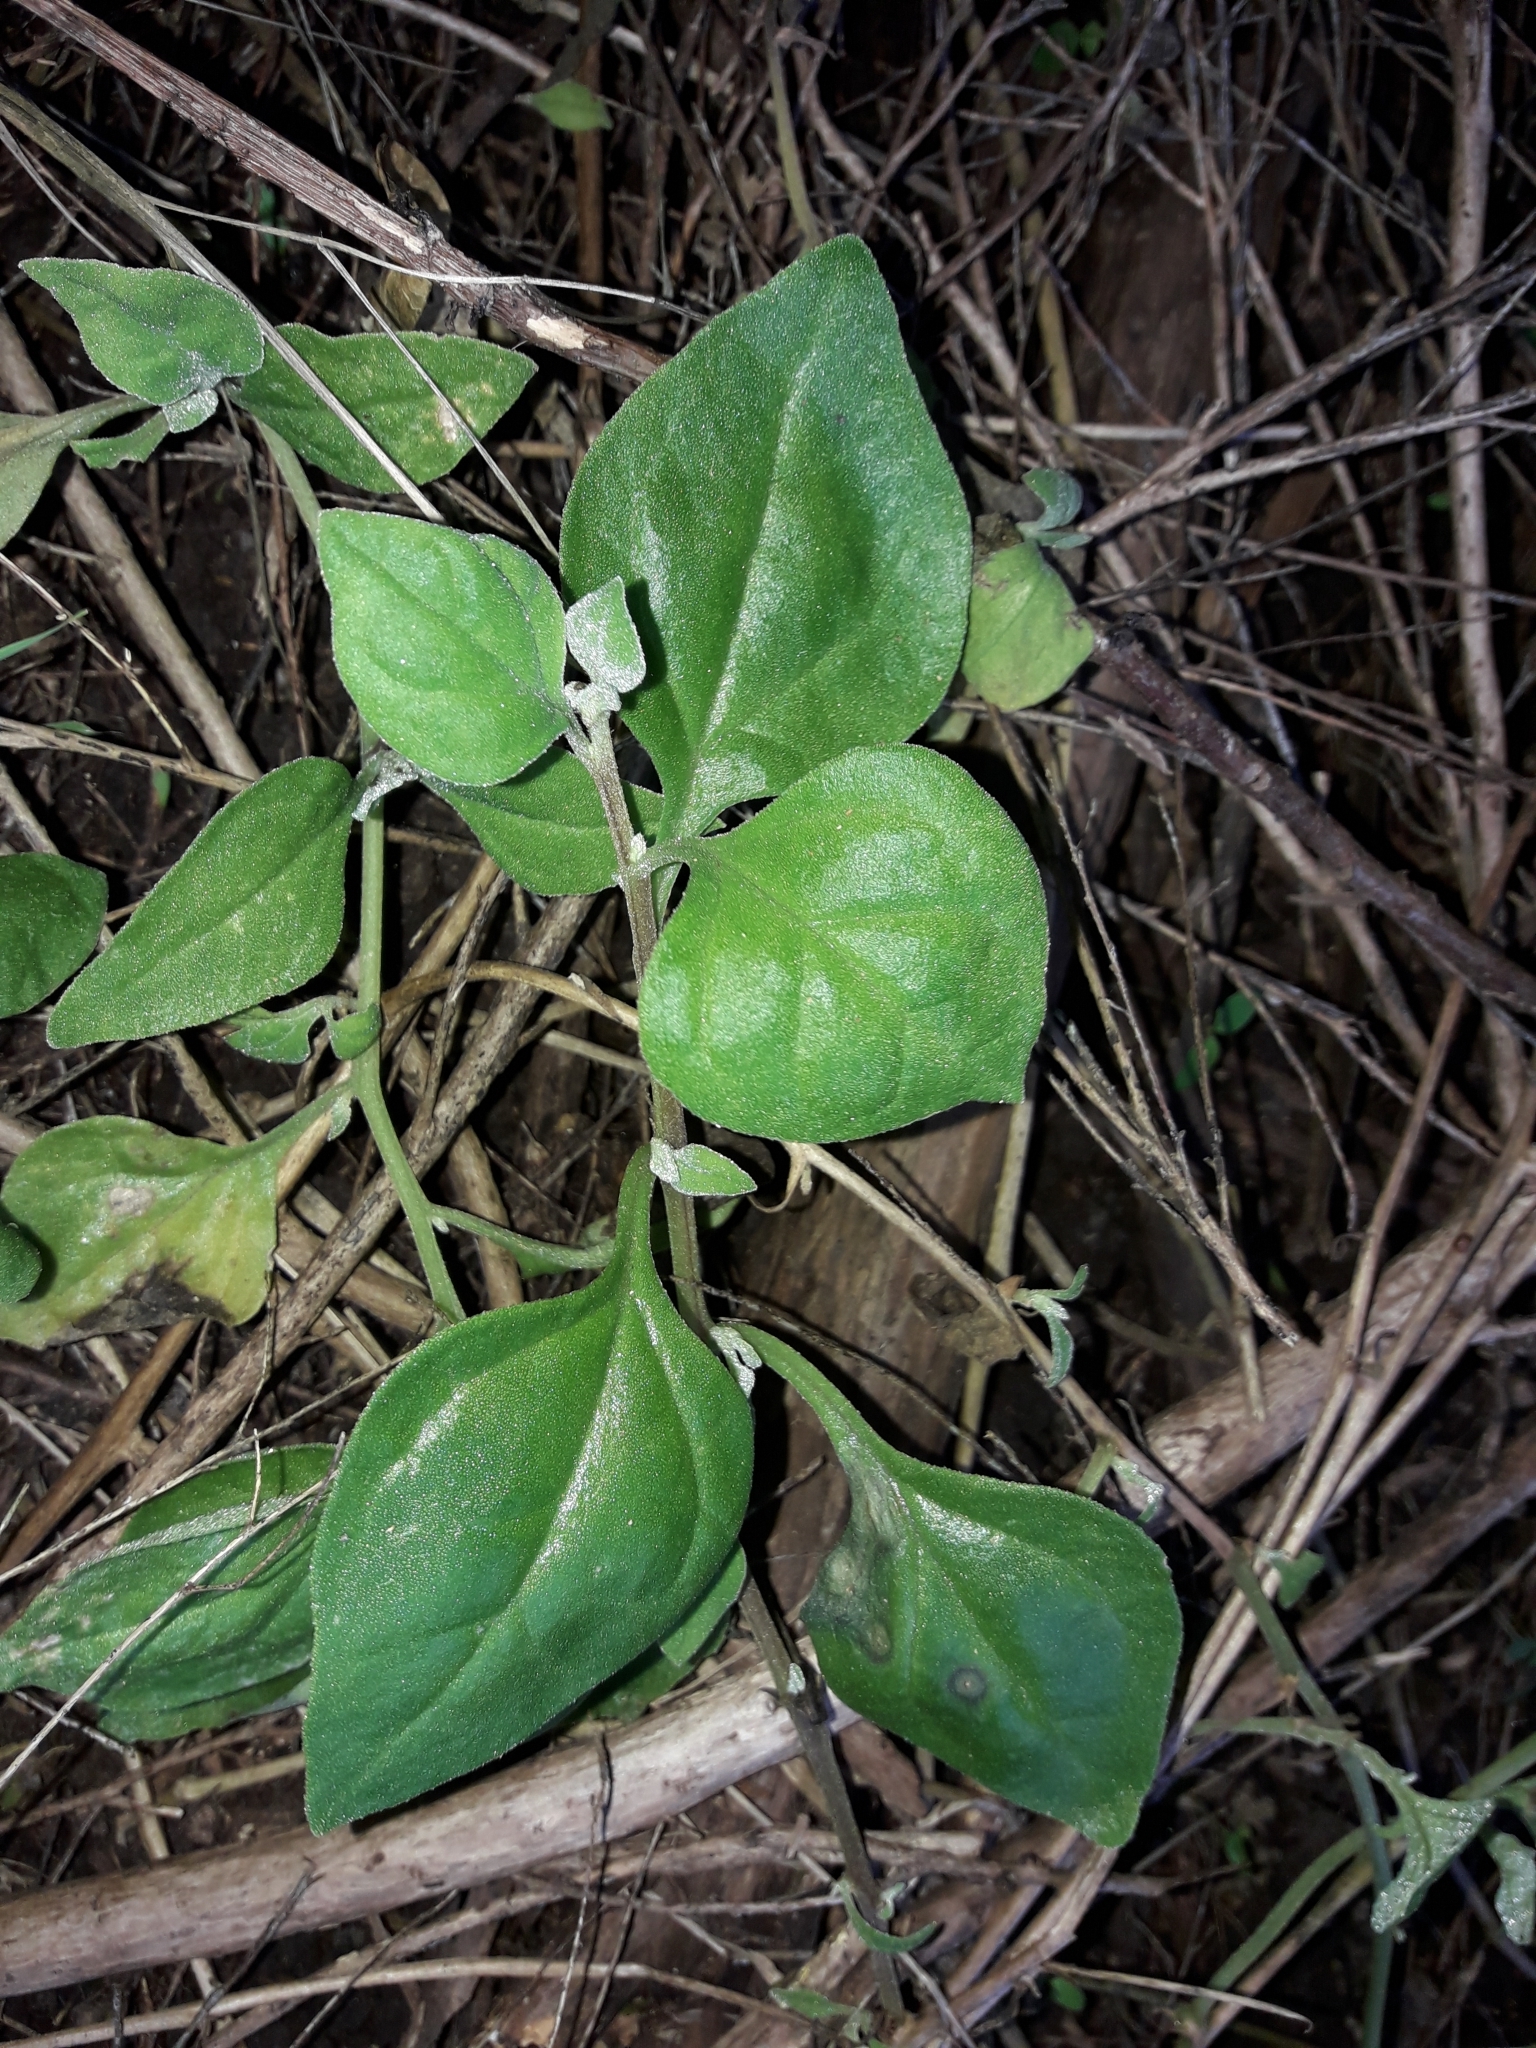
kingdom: Plantae
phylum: Tracheophyta
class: Magnoliopsida
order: Caryophyllales
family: Aizoaceae
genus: Tetragonia
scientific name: Tetragonia implexicoma
